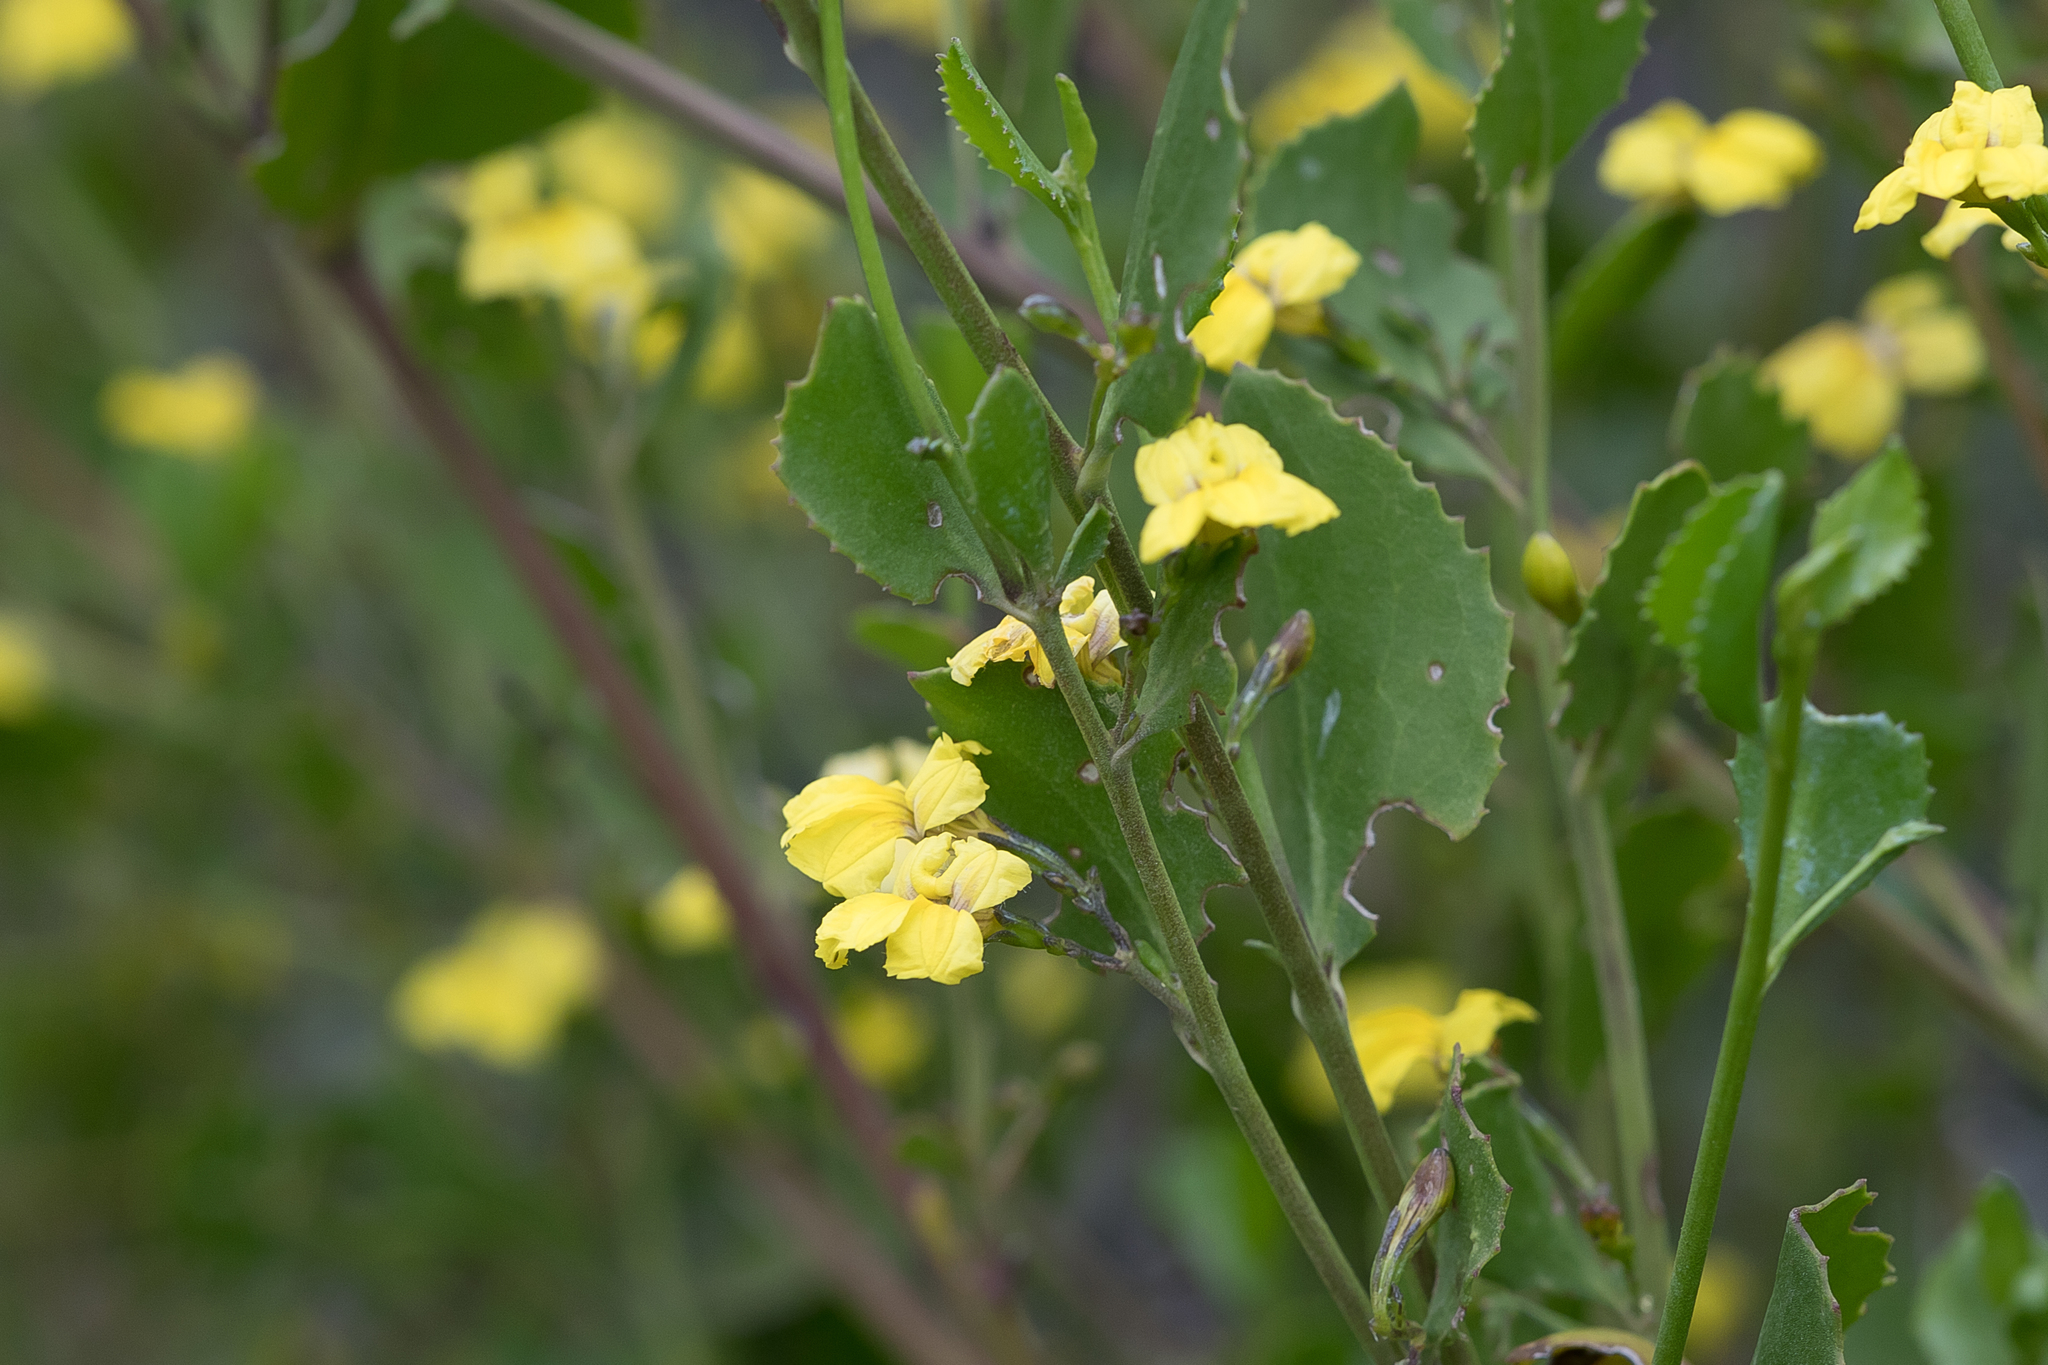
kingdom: Plantae
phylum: Tracheophyta
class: Magnoliopsida
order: Asterales
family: Goodeniaceae
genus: Goodenia
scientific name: Goodenia varia
